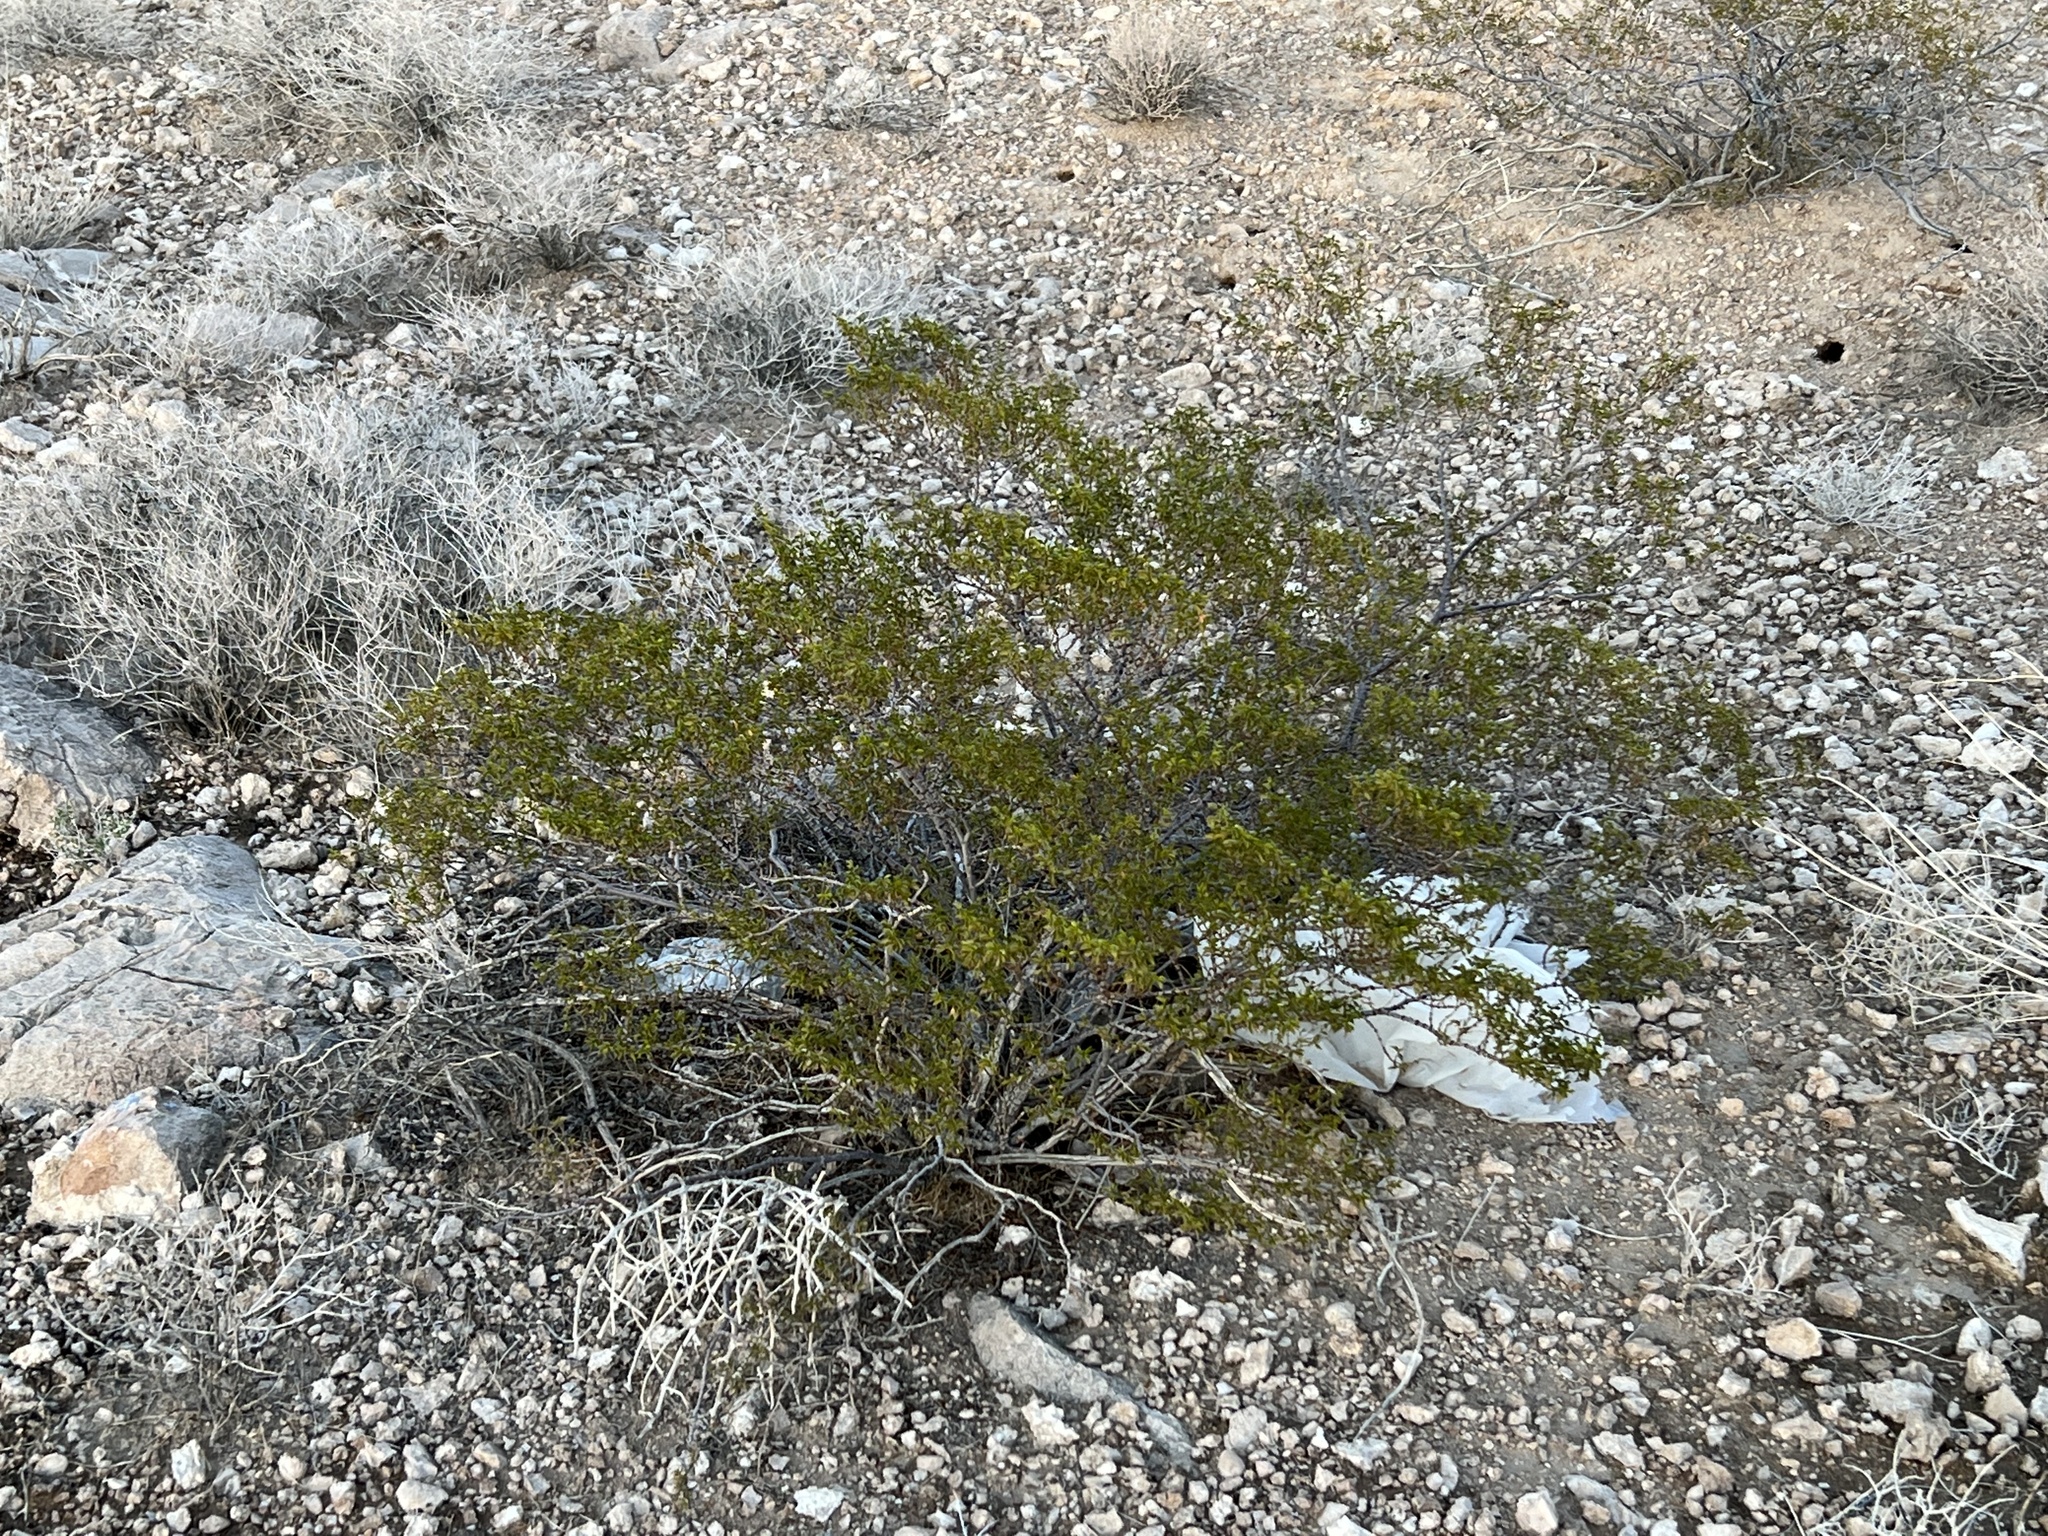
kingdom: Plantae
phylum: Tracheophyta
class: Magnoliopsida
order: Zygophyllales
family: Zygophyllaceae
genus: Larrea
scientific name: Larrea tridentata
